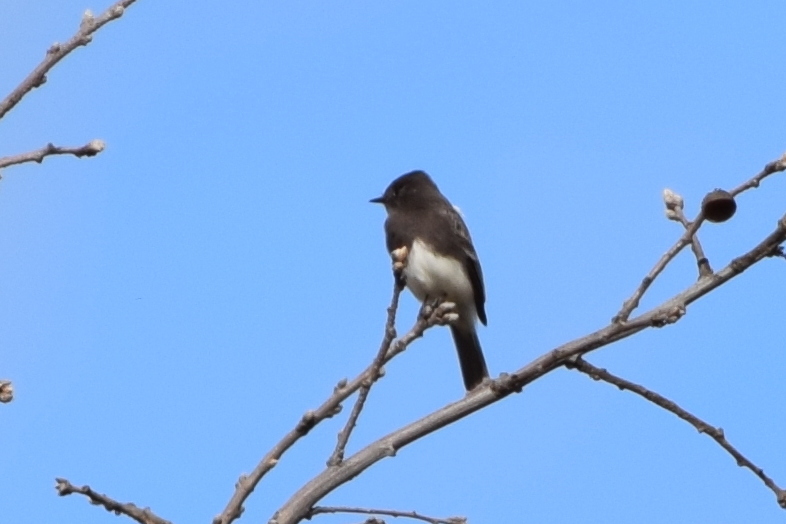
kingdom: Animalia
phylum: Chordata
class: Aves
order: Passeriformes
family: Tyrannidae
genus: Sayornis
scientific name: Sayornis nigricans
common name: Black phoebe
